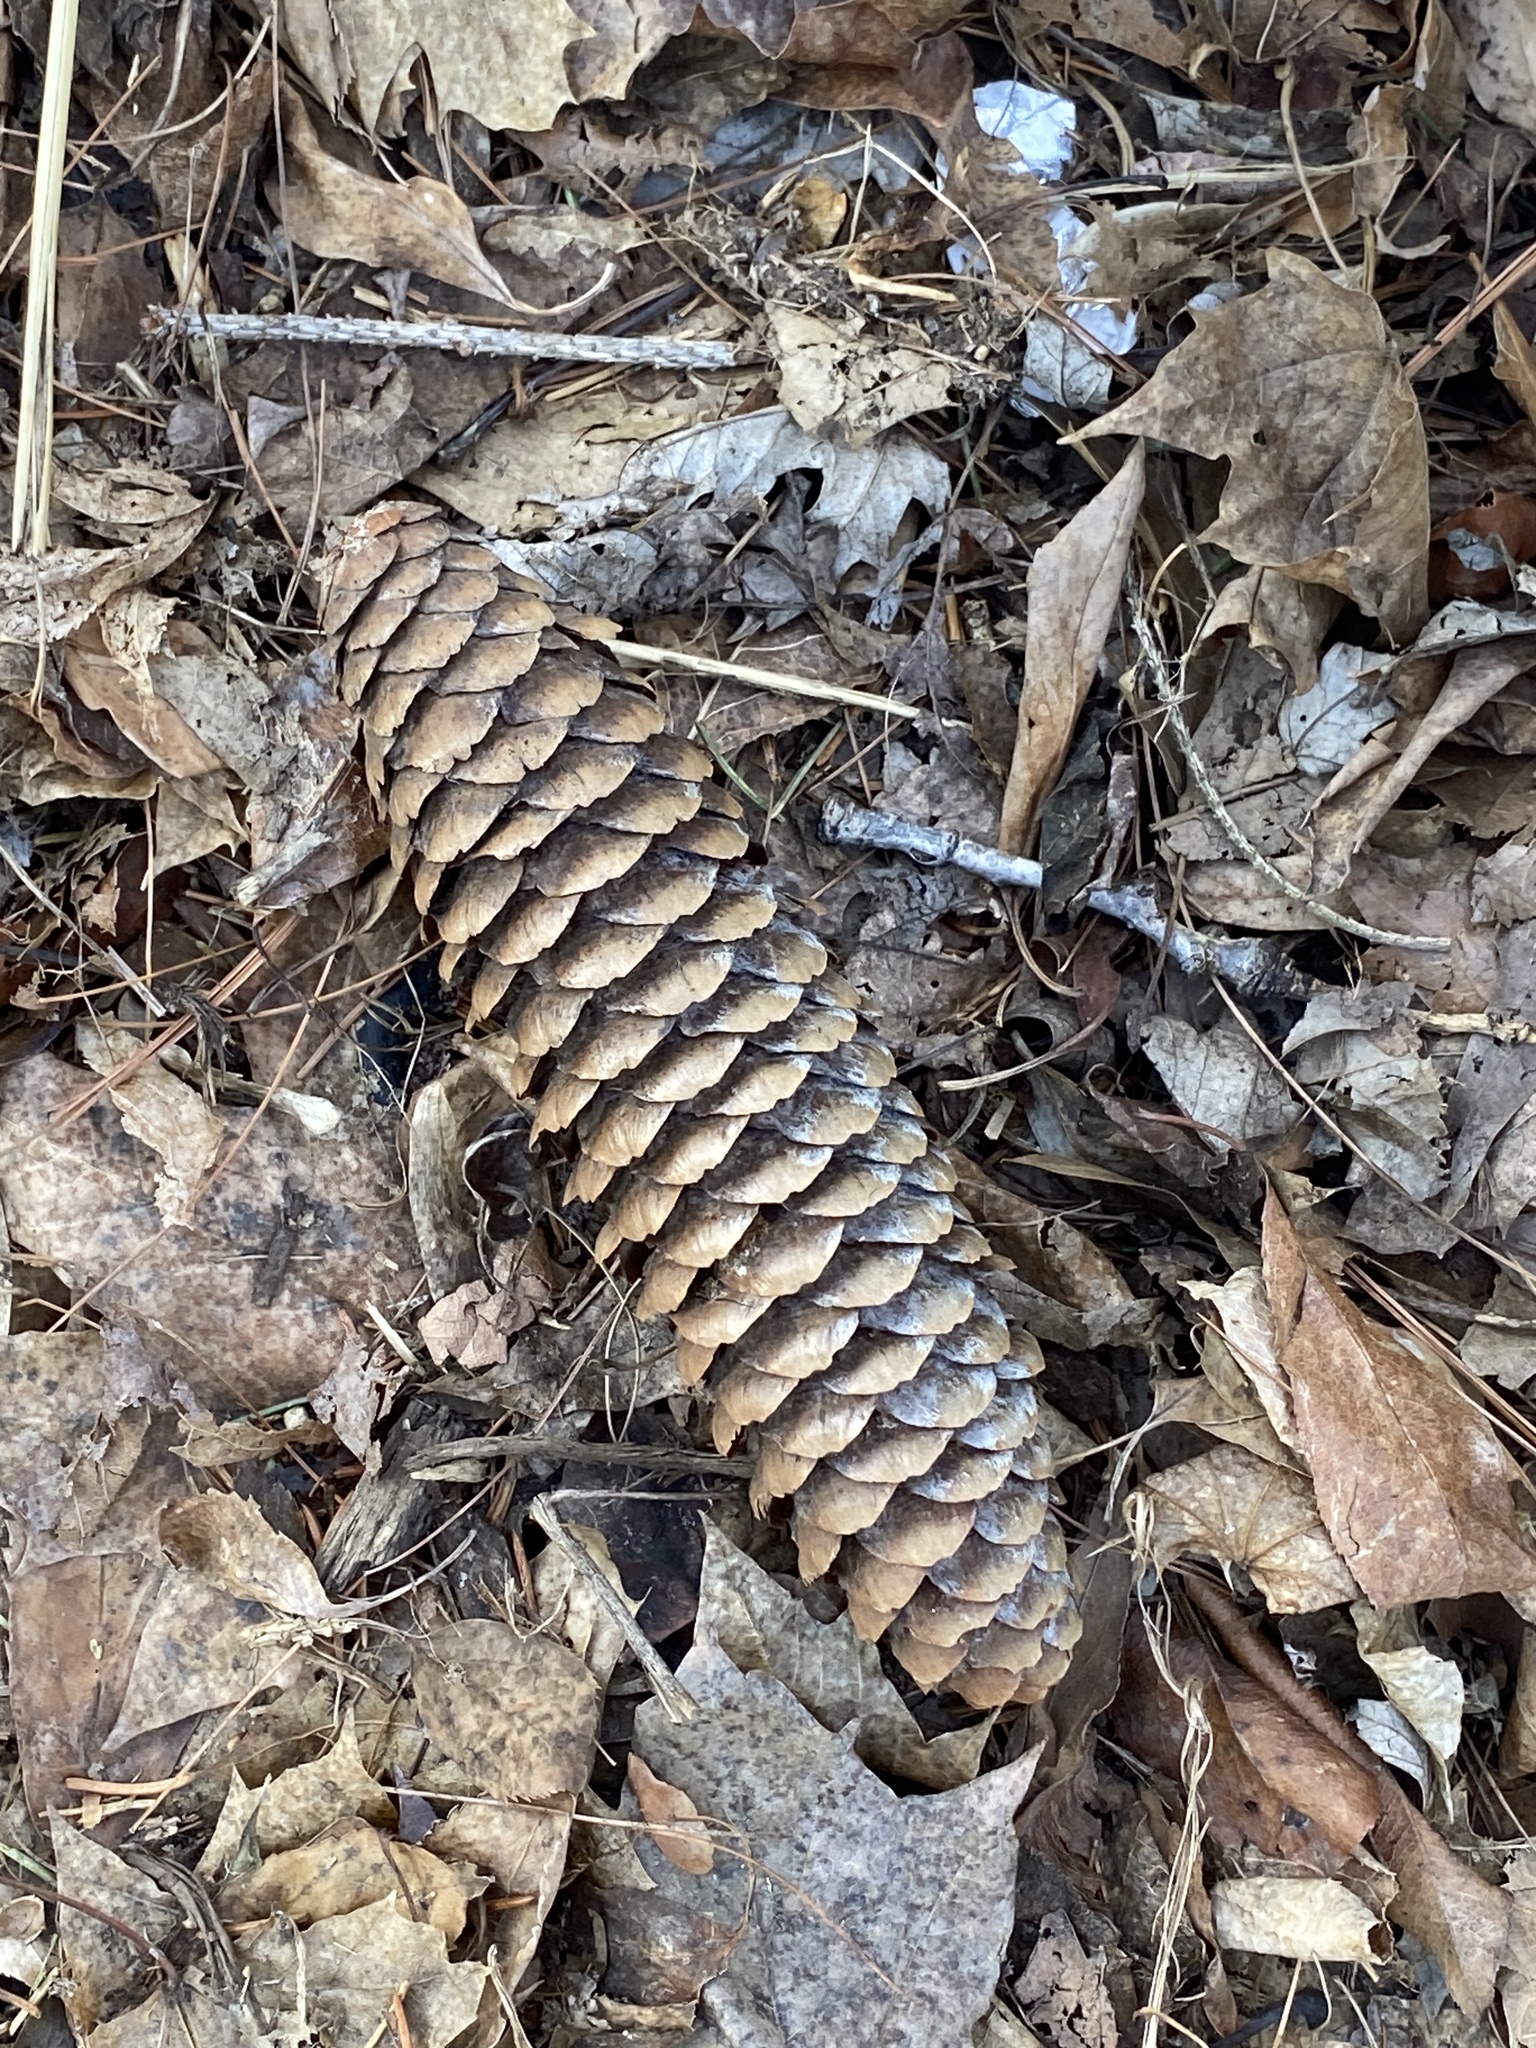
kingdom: Plantae
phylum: Tracheophyta
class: Pinopsida
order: Pinales
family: Pinaceae
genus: Picea
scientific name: Picea abies
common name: Norway spruce
